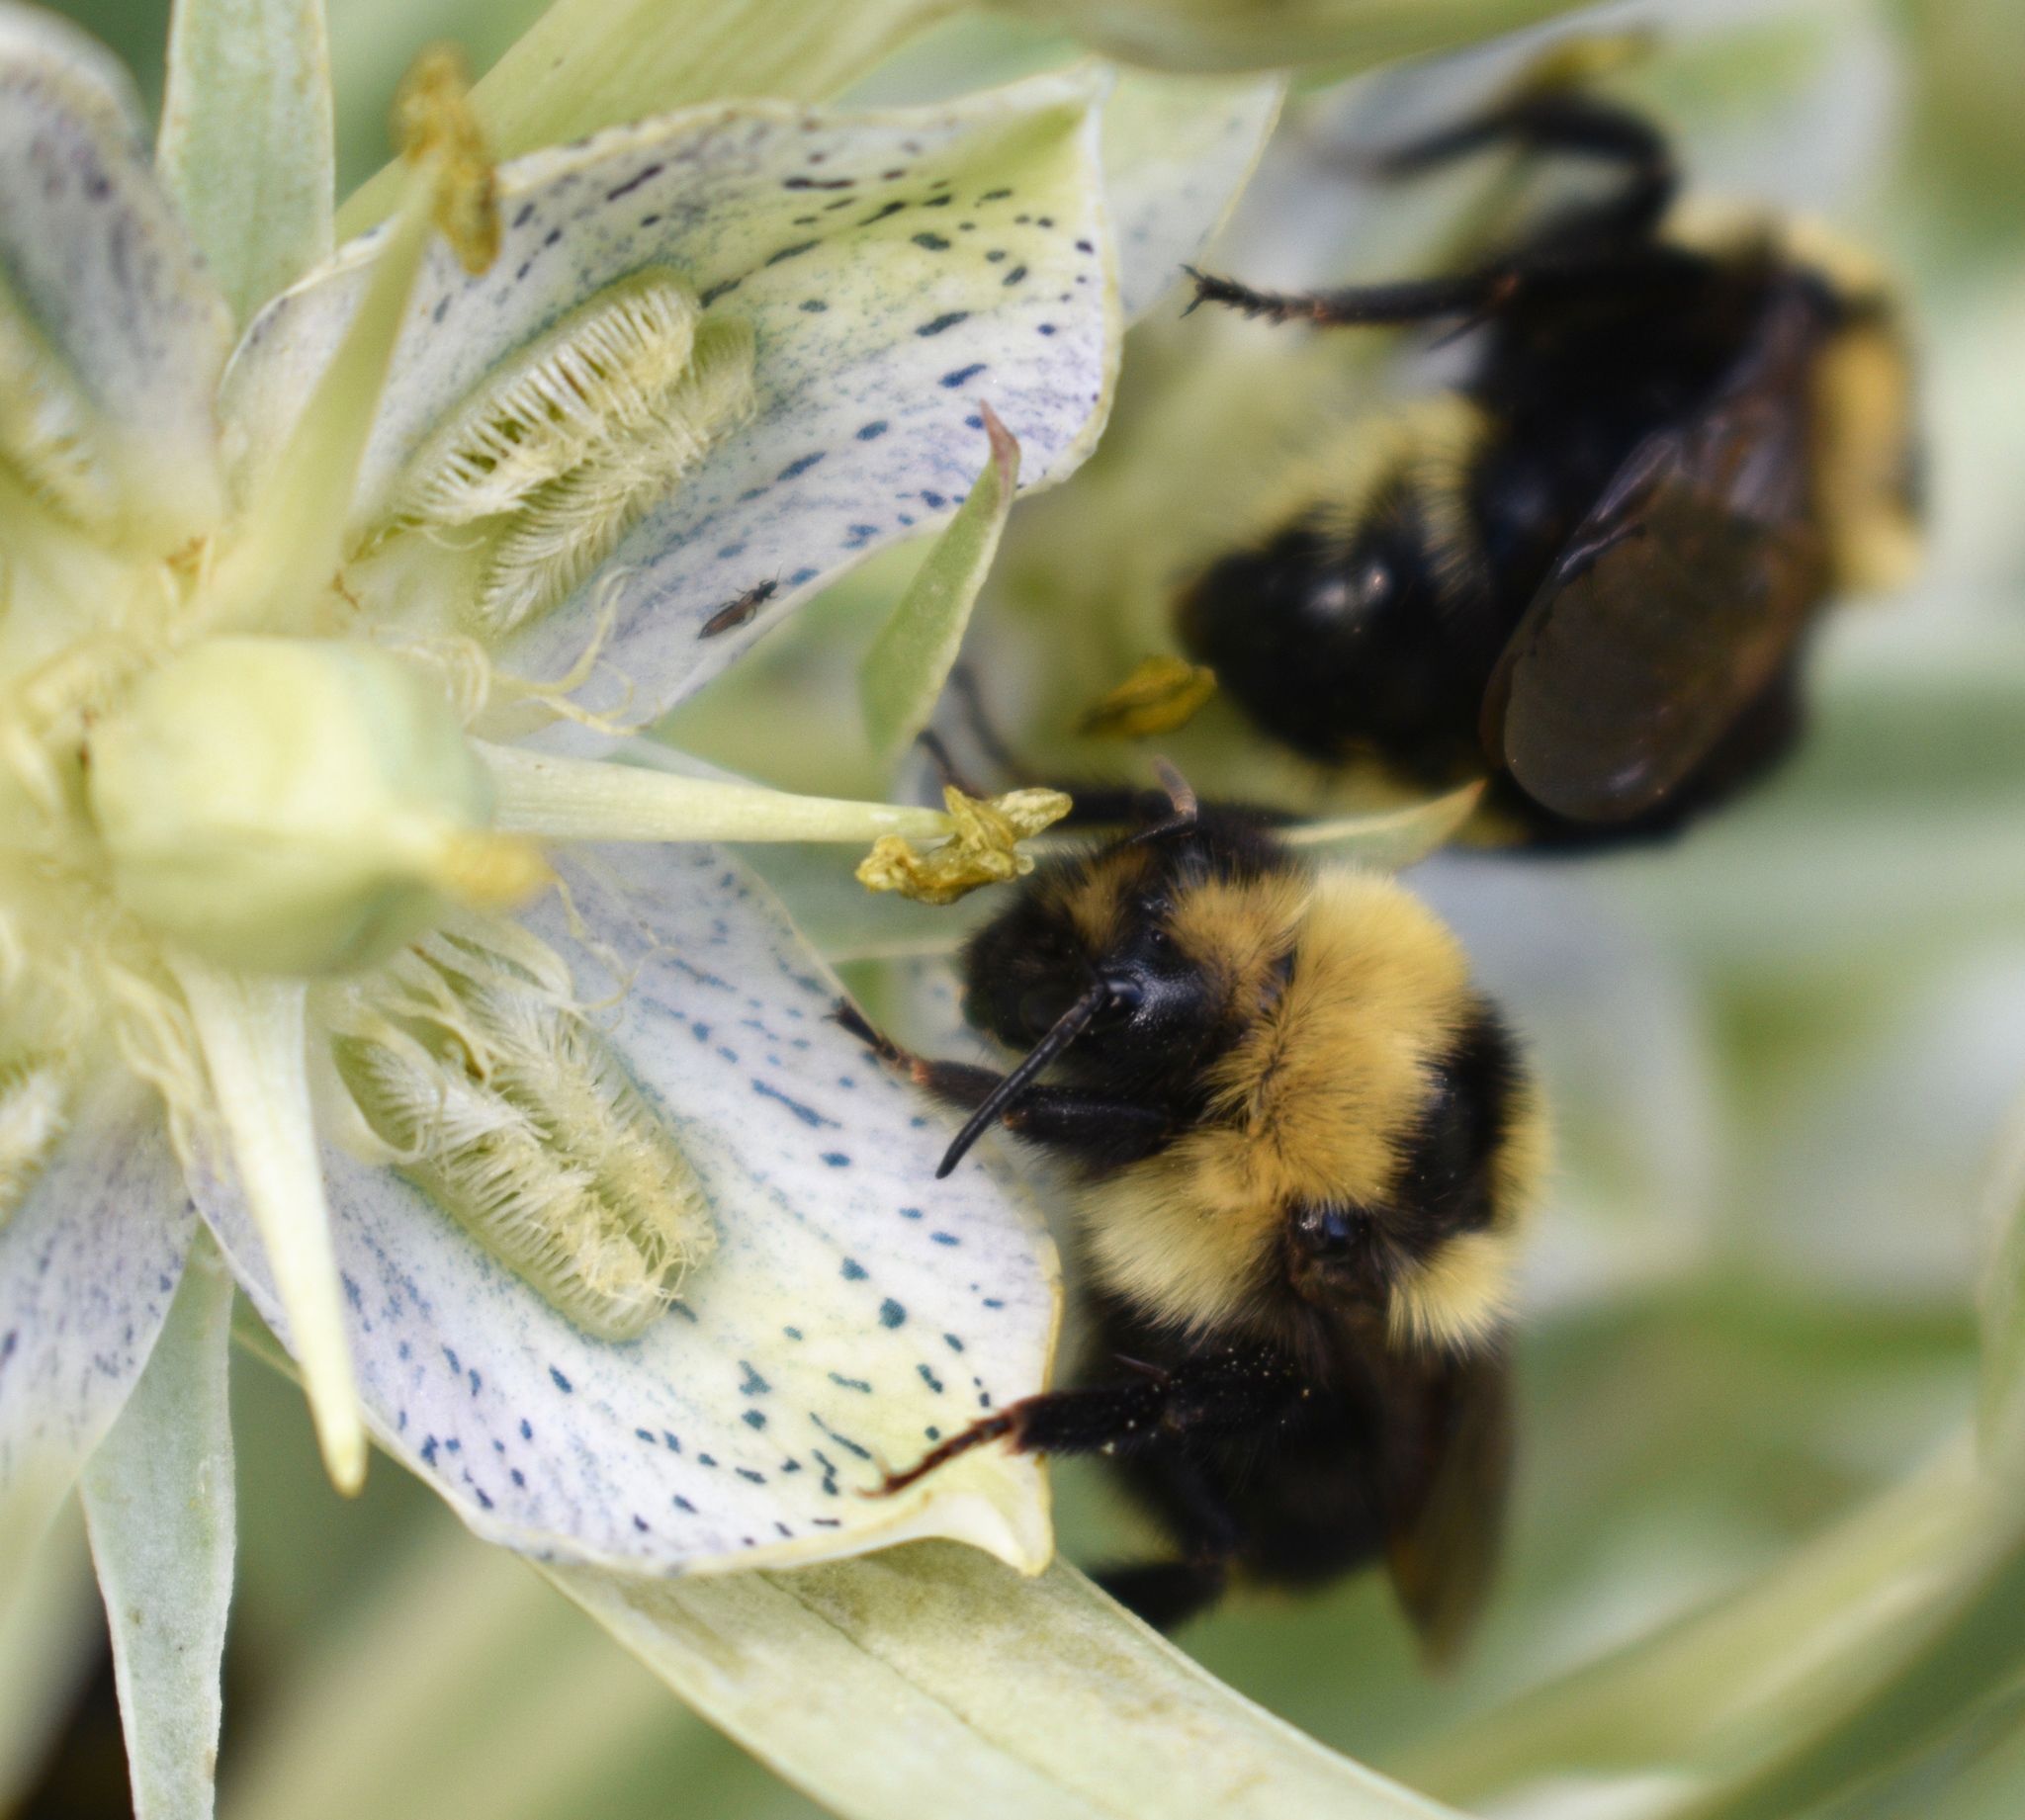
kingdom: Animalia
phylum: Arthropoda
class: Insecta
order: Hymenoptera
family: Apidae
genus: Bombus
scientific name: Bombus insularis
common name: Indiscriminate cuckoo bumble bee
